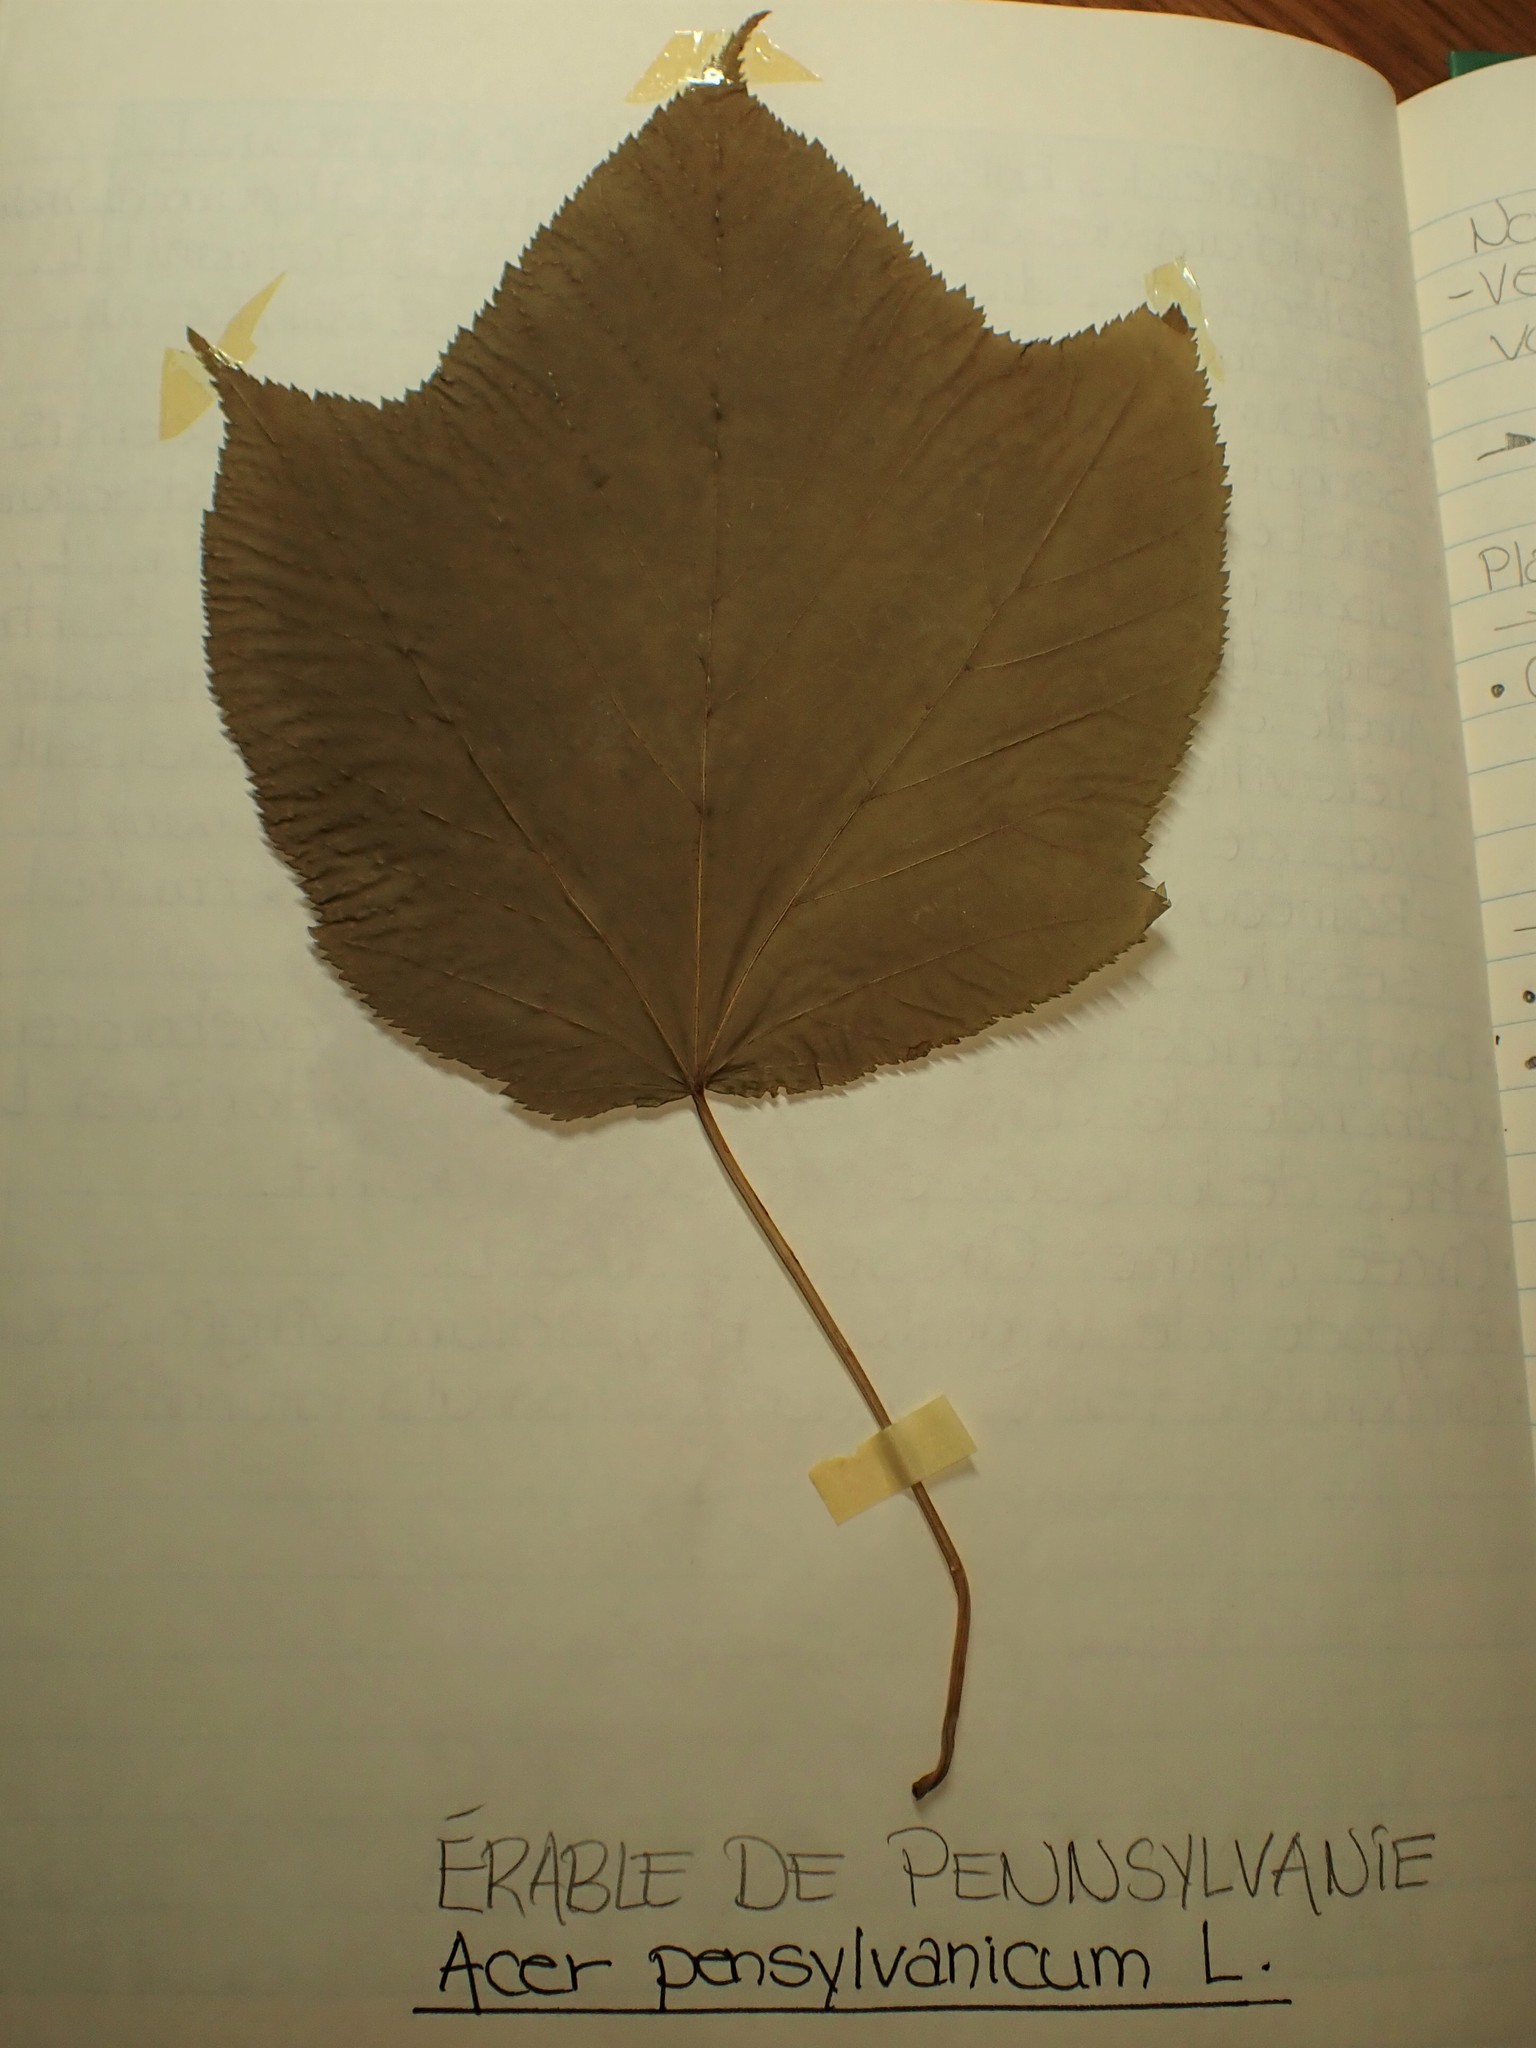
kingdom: Plantae
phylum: Tracheophyta
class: Magnoliopsida
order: Sapindales
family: Sapindaceae
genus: Acer
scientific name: Acer pensylvanicum
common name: Moosewood
